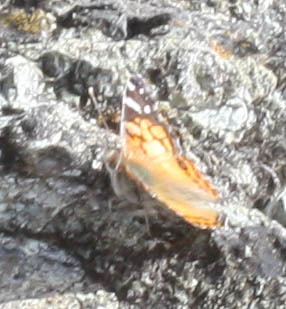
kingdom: Animalia
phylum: Arthropoda
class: Insecta
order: Lepidoptera
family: Nymphalidae
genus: Vanessa
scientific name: Vanessa virginiensis
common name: American lady
